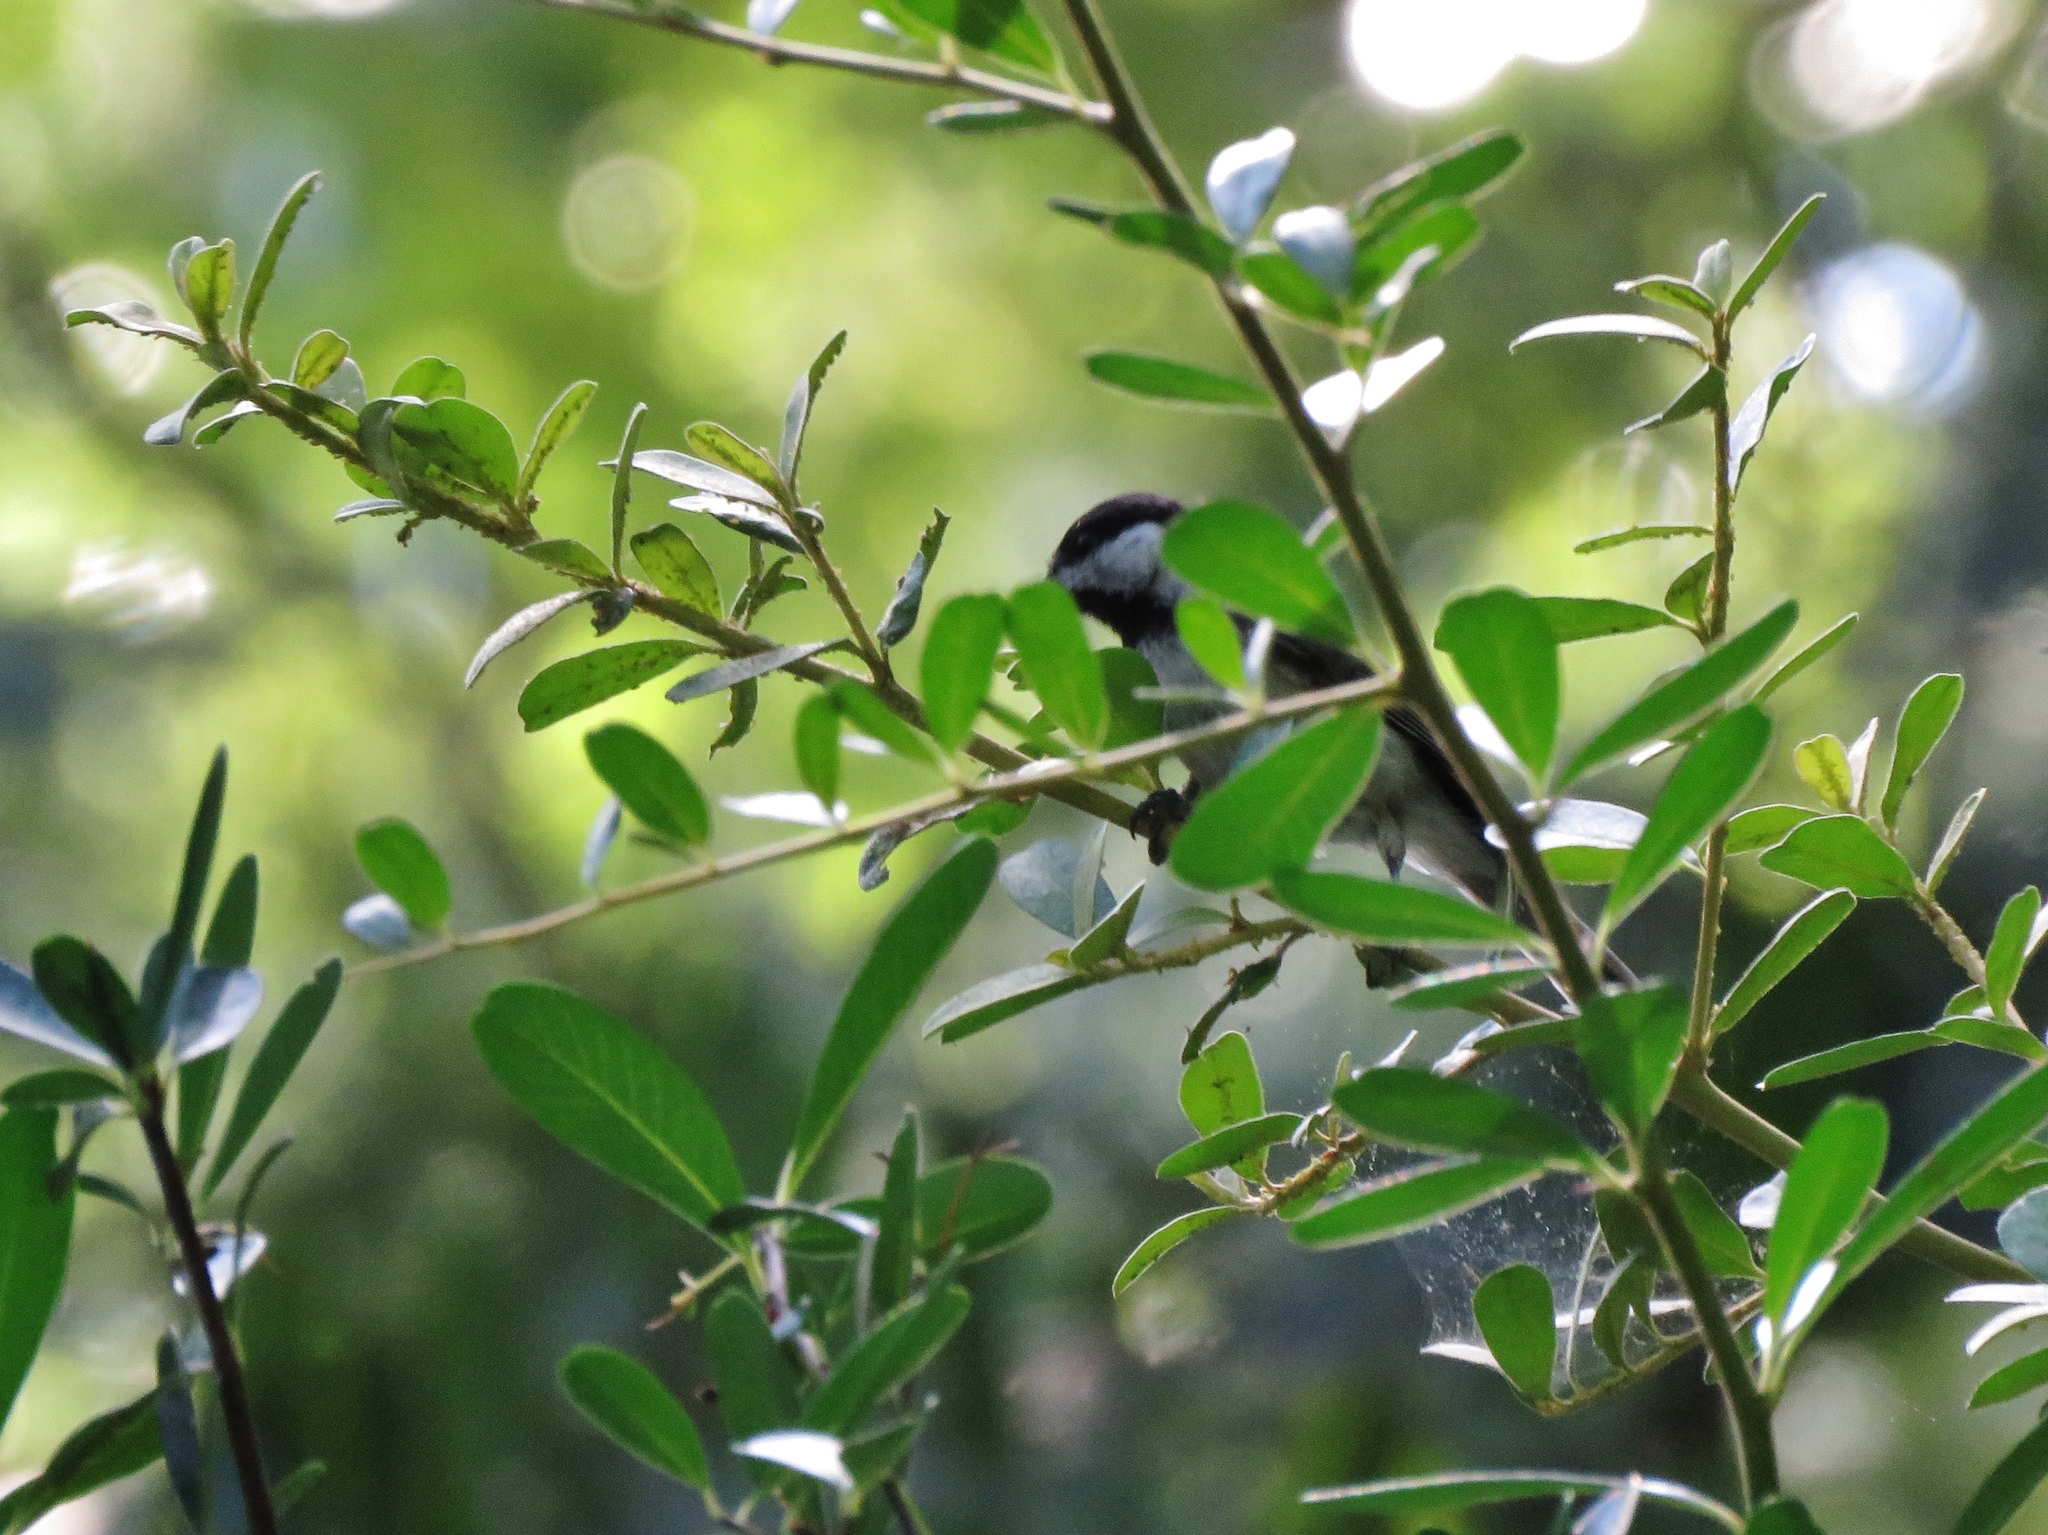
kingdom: Animalia
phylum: Chordata
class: Aves
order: Passeriformes
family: Paridae
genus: Poecile
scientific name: Poecile carolinensis
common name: Carolina chickadee
